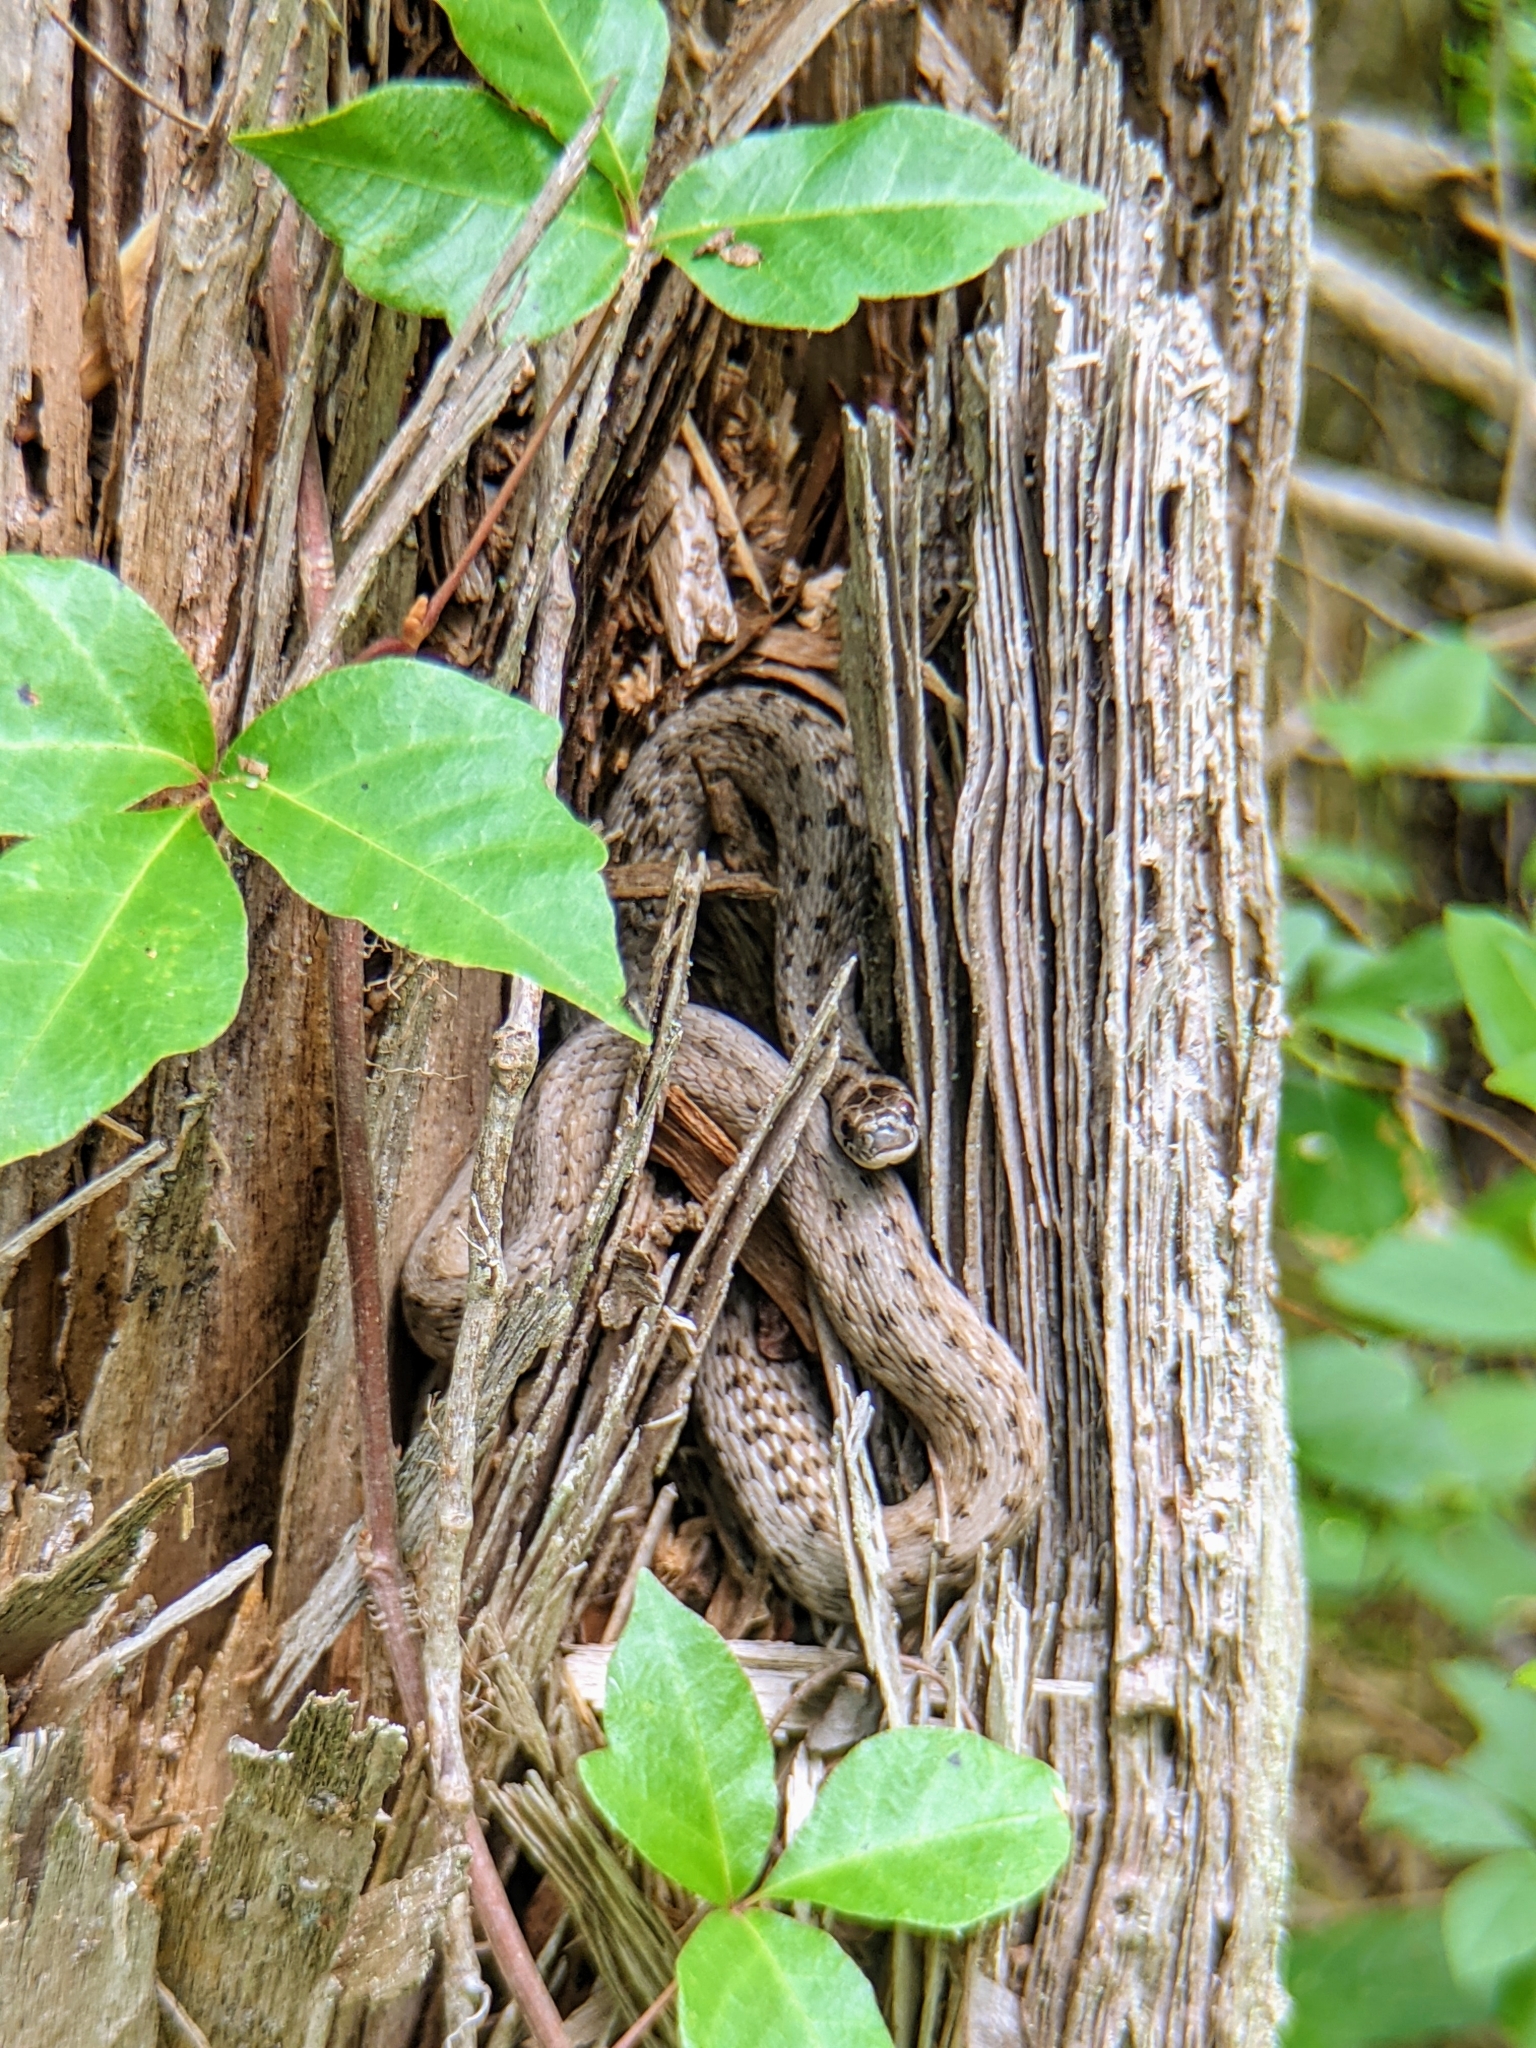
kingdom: Animalia
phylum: Chordata
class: Squamata
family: Colubridae
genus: Storeria
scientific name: Storeria dekayi
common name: (dekay’s) brown snake
